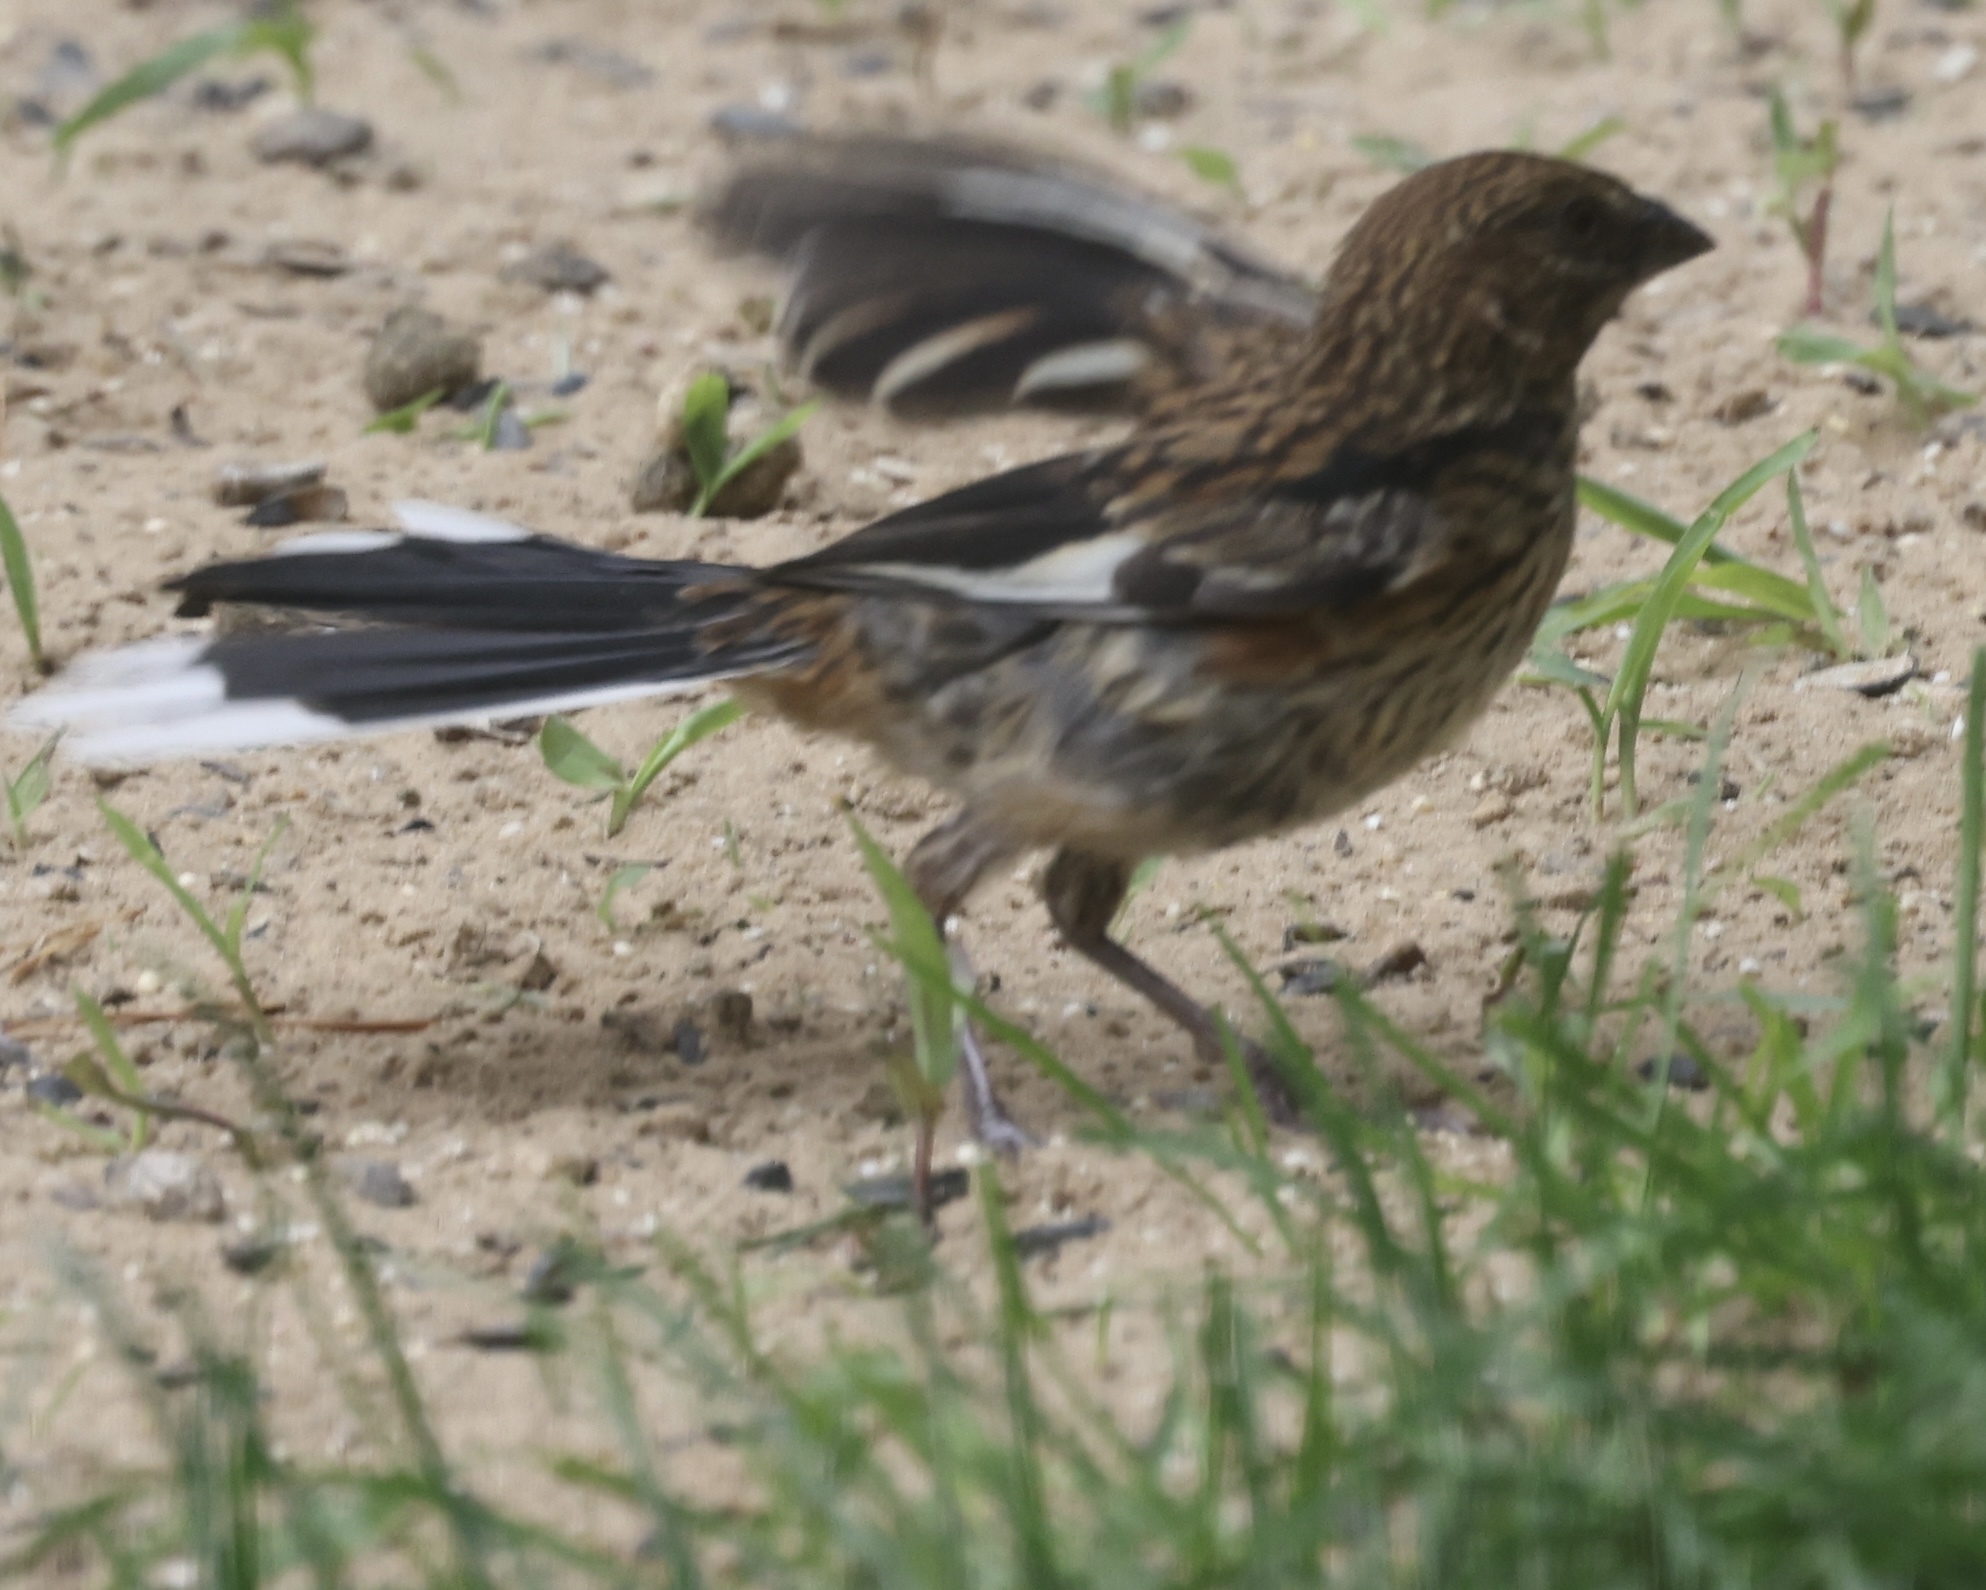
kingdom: Animalia
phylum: Chordata
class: Aves
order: Passeriformes
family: Passerellidae
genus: Pipilo
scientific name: Pipilo erythrophthalmus
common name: Eastern towhee
